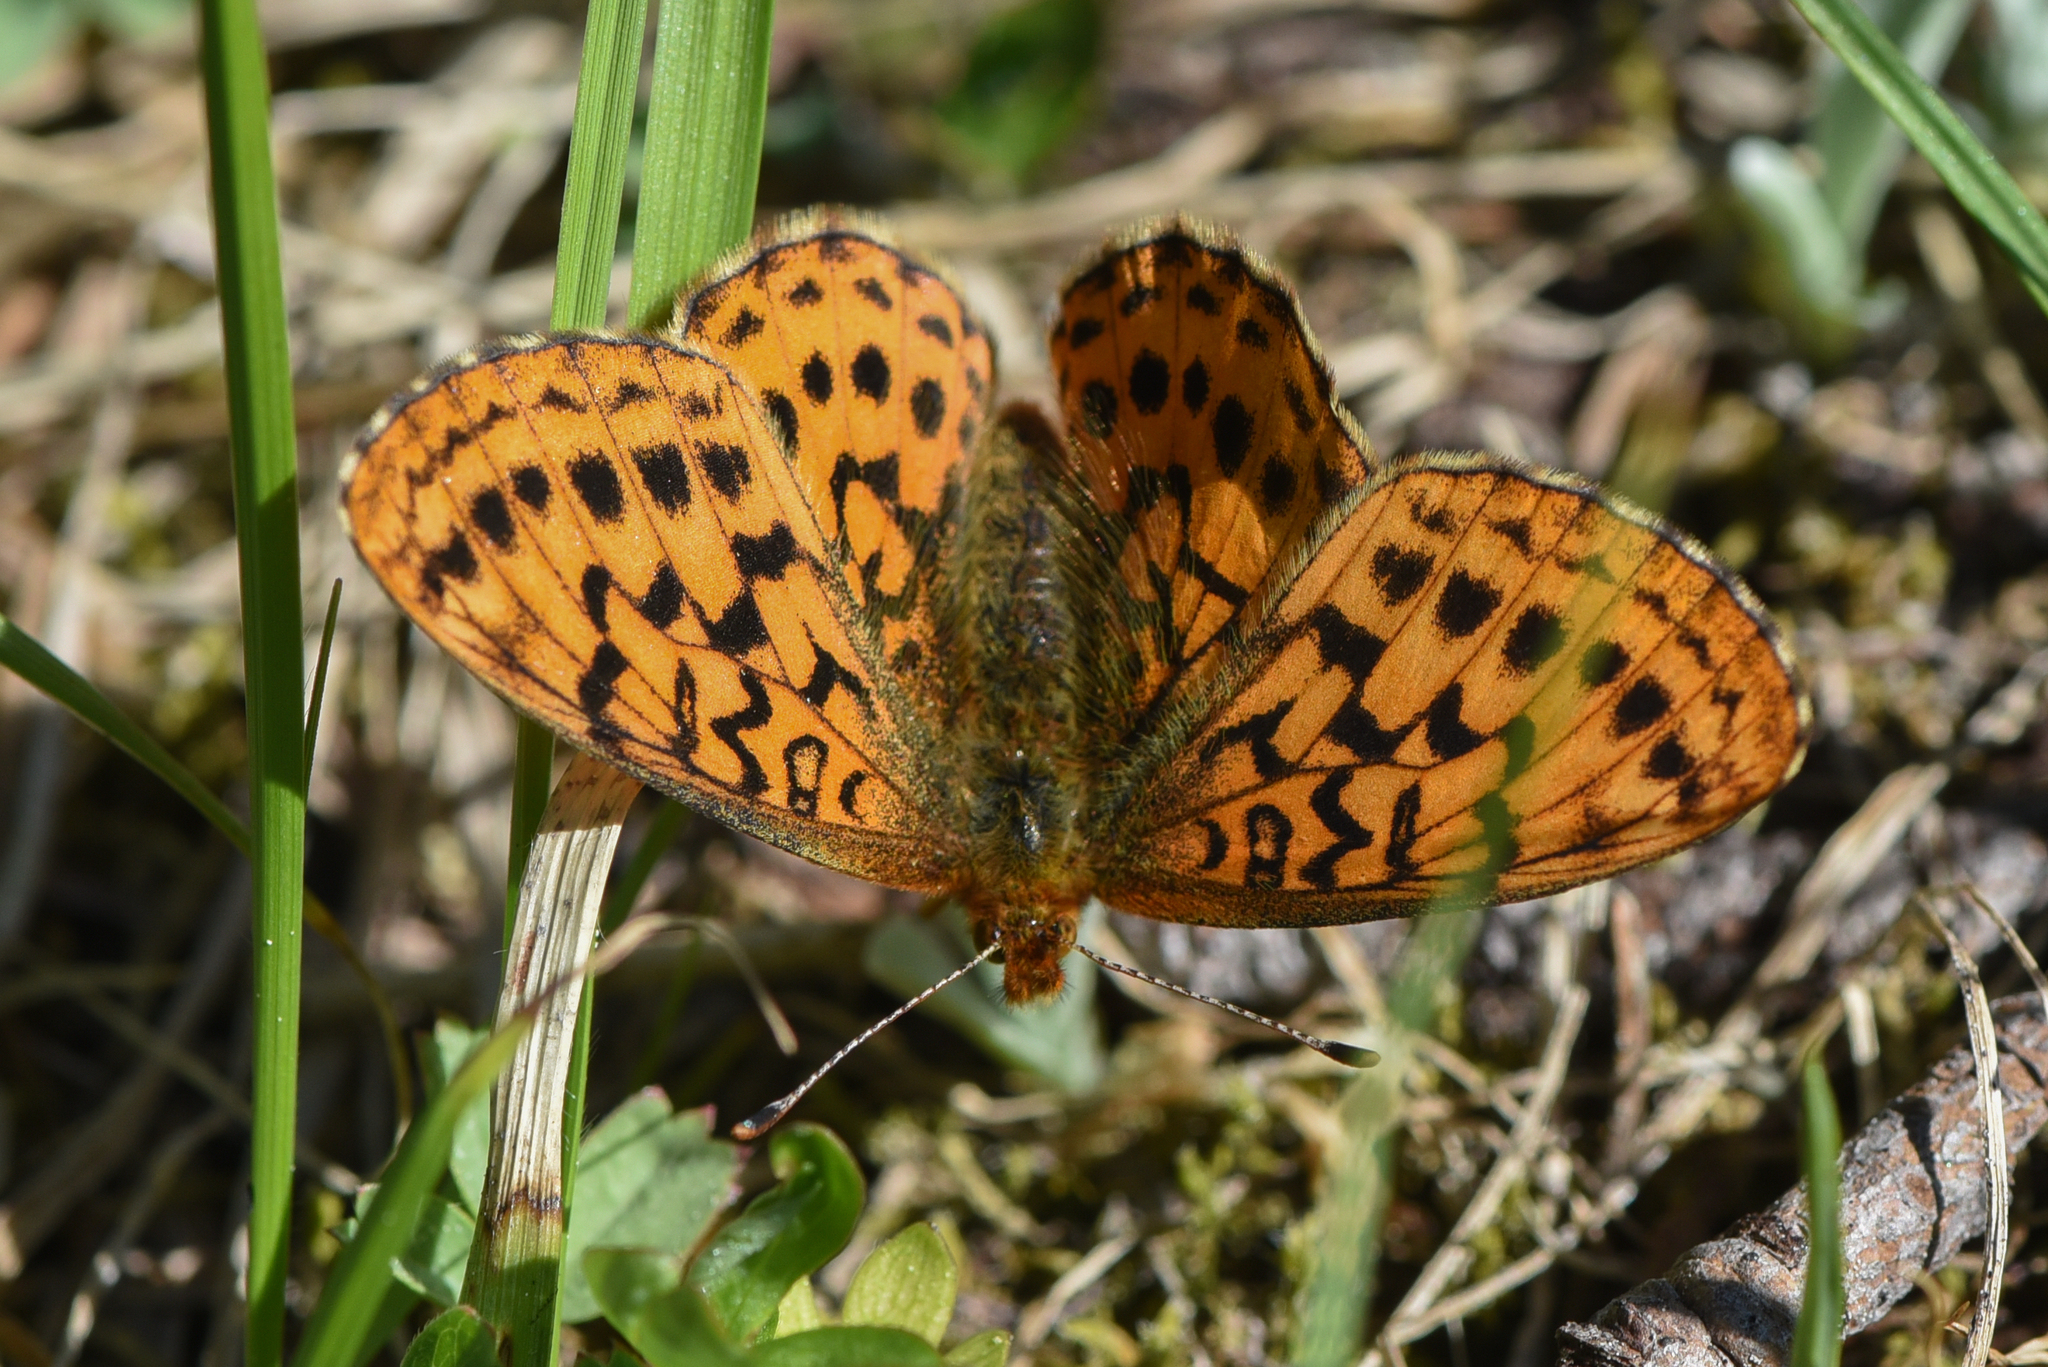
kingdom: Animalia
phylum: Arthropoda
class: Insecta
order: Lepidoptera
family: Nymphalidae
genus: Boloria
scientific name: Boloria epithore
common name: Pacific fritillary
